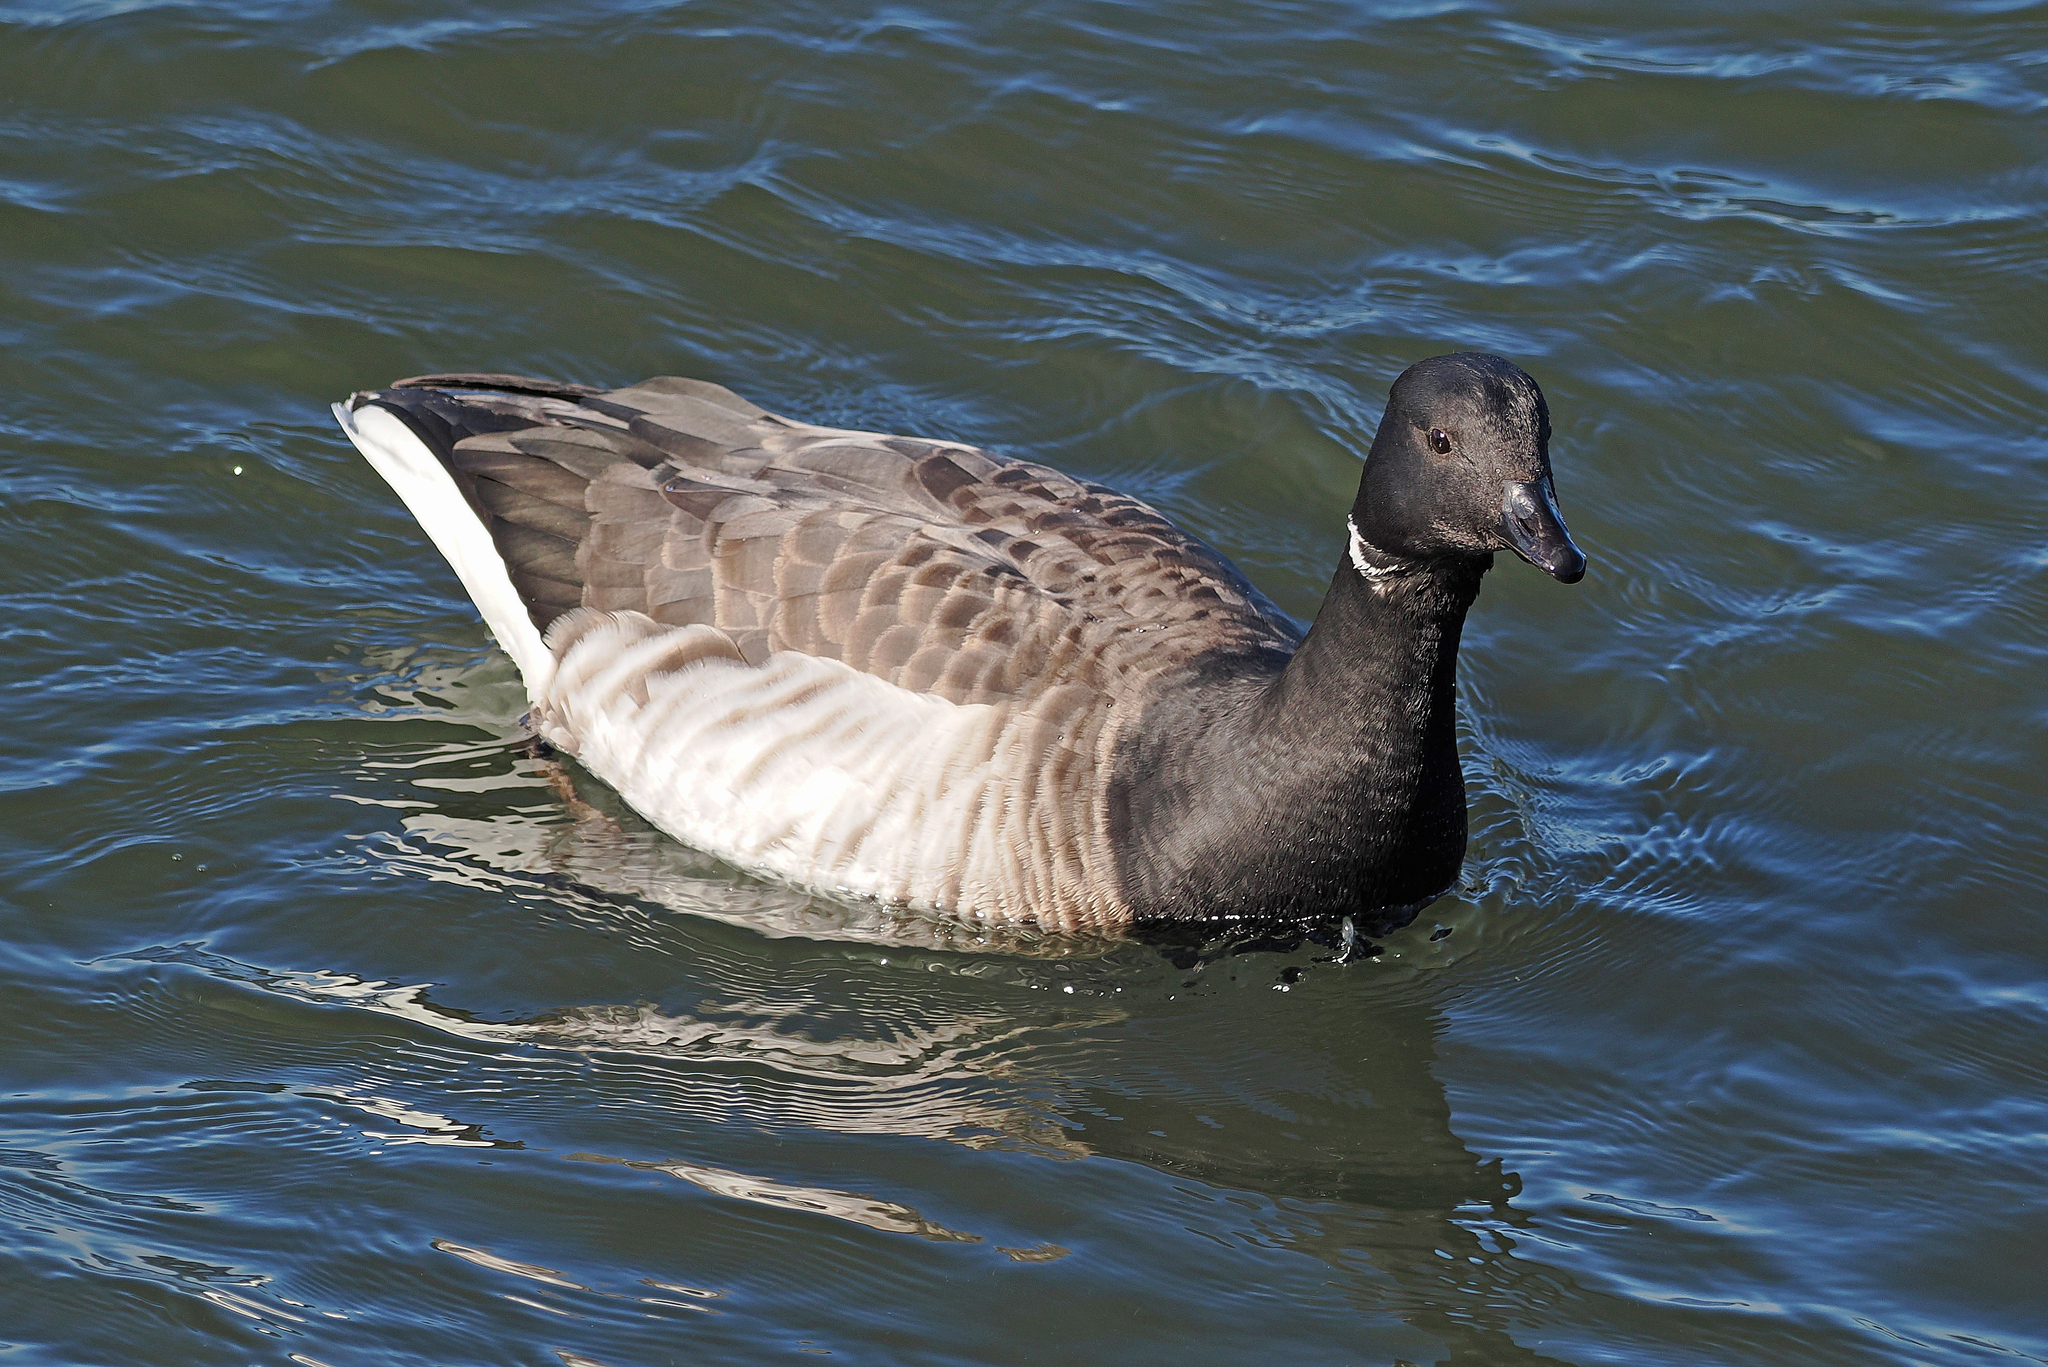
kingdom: Animalia
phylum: Chordata
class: Aves
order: Anseriformes
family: Anatidae
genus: Branta
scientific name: Branta bernicla
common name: Brant goose
